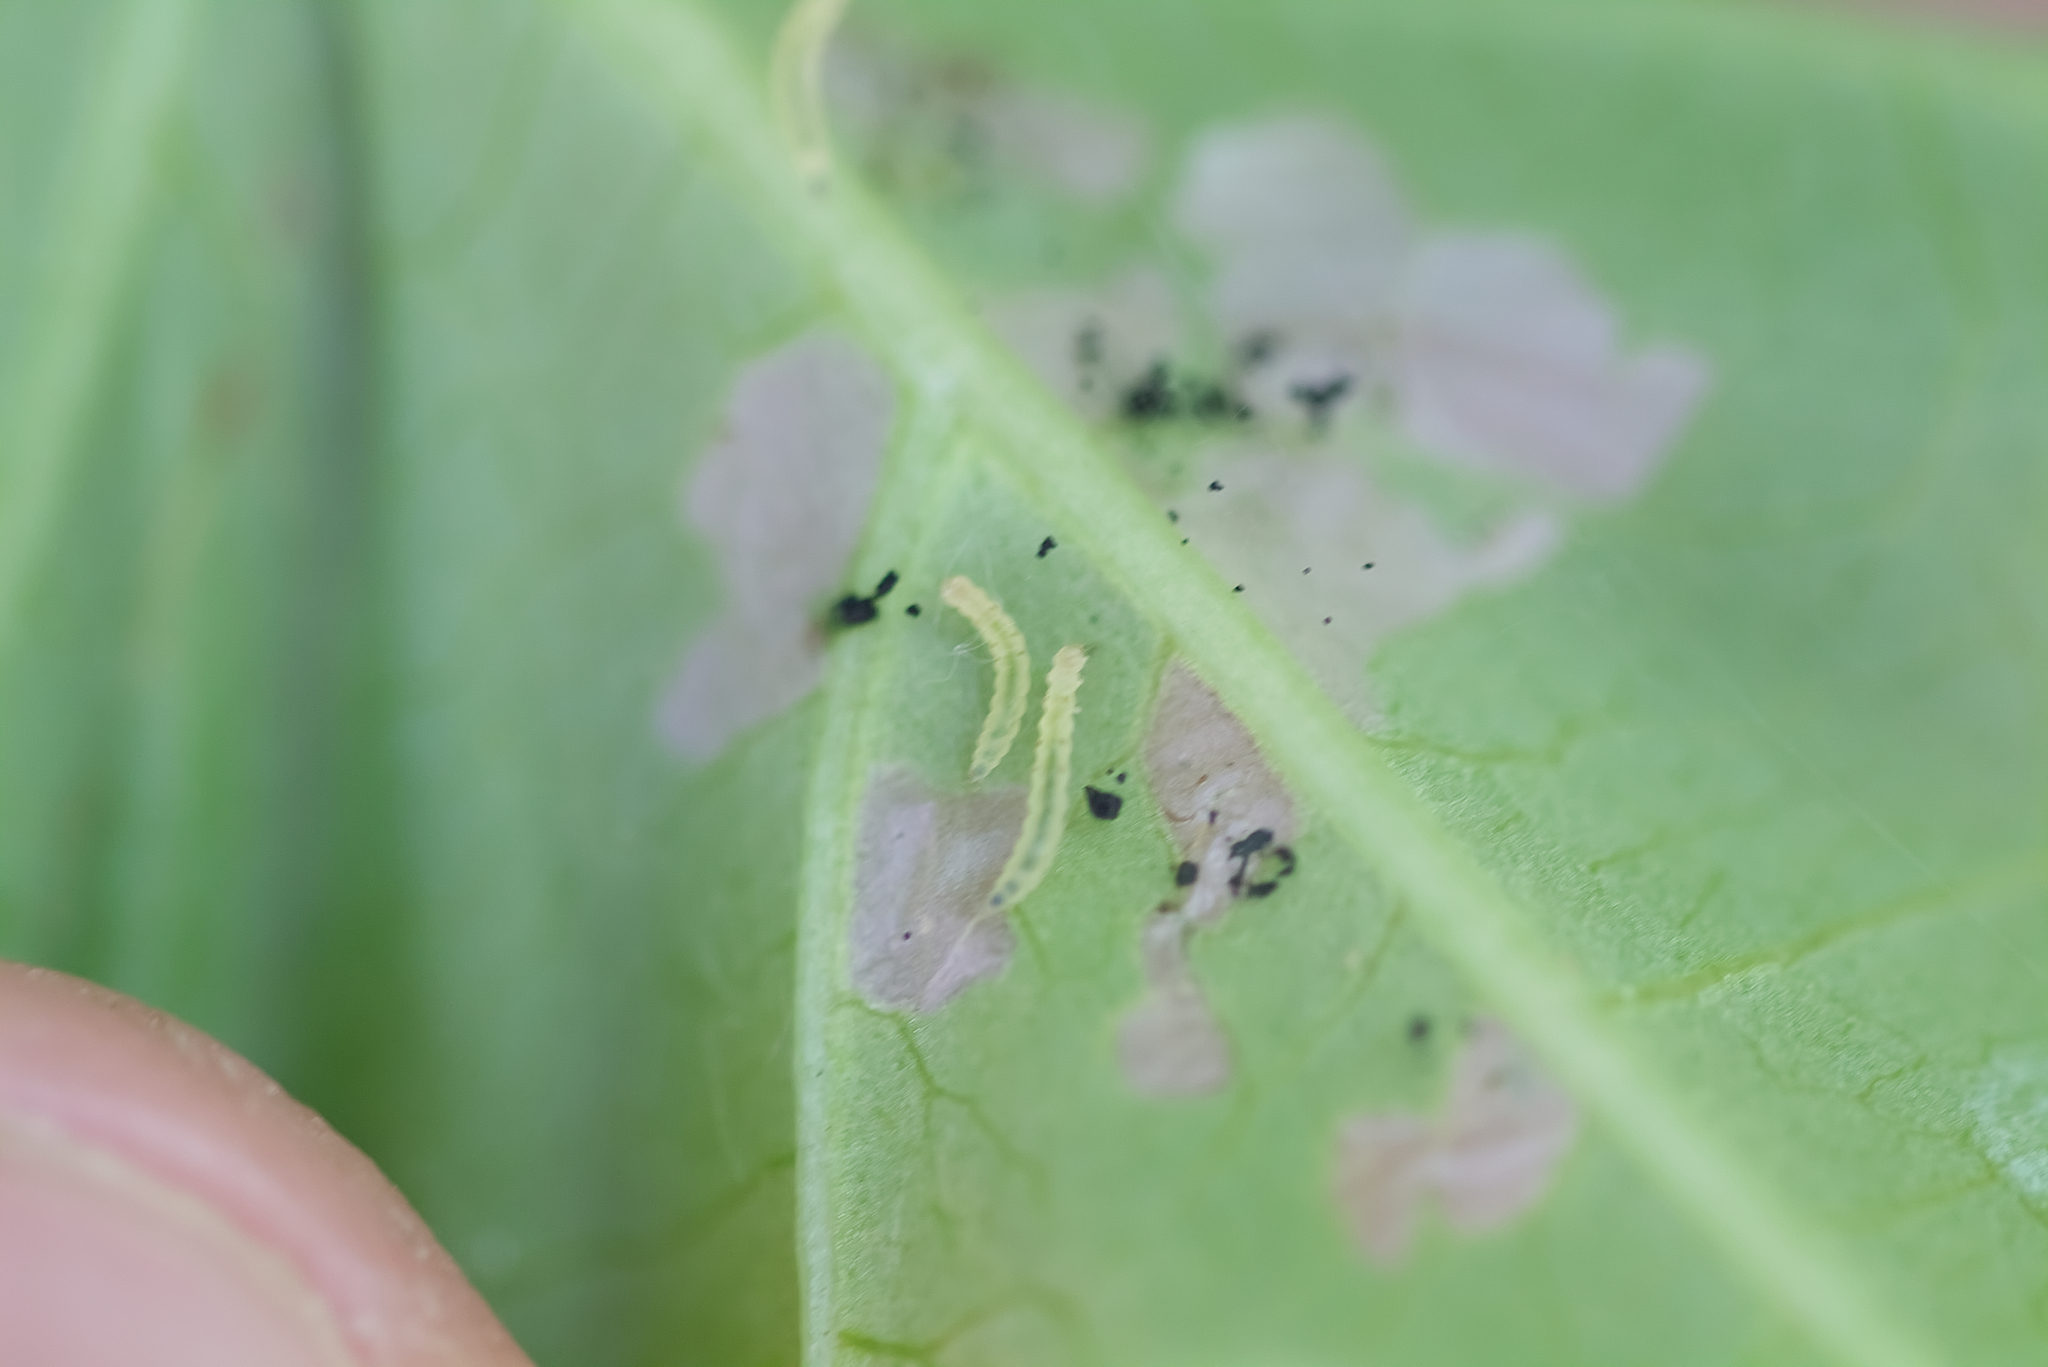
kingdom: Animalia
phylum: Arthropoda
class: Insecta
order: Lepidoptera
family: Bedelliidae
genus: Bedellia
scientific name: Bedellia somnulentella
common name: Morning-glory leafminer moth
